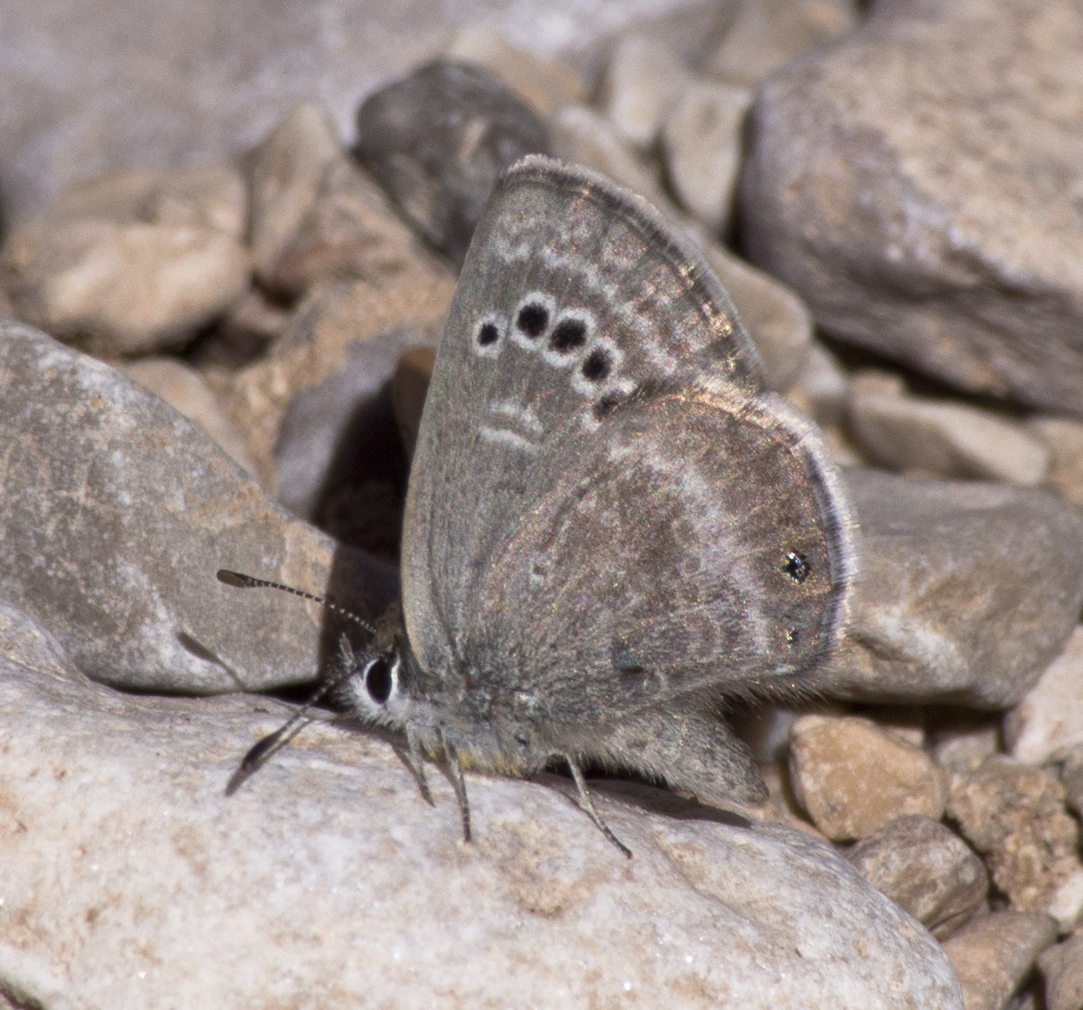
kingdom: Animalia
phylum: Arthropoda
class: Insecta
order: Lepidoptera
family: Lycaenidae
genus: Echinargus
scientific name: Echinargus isola
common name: Reakirt's blue
